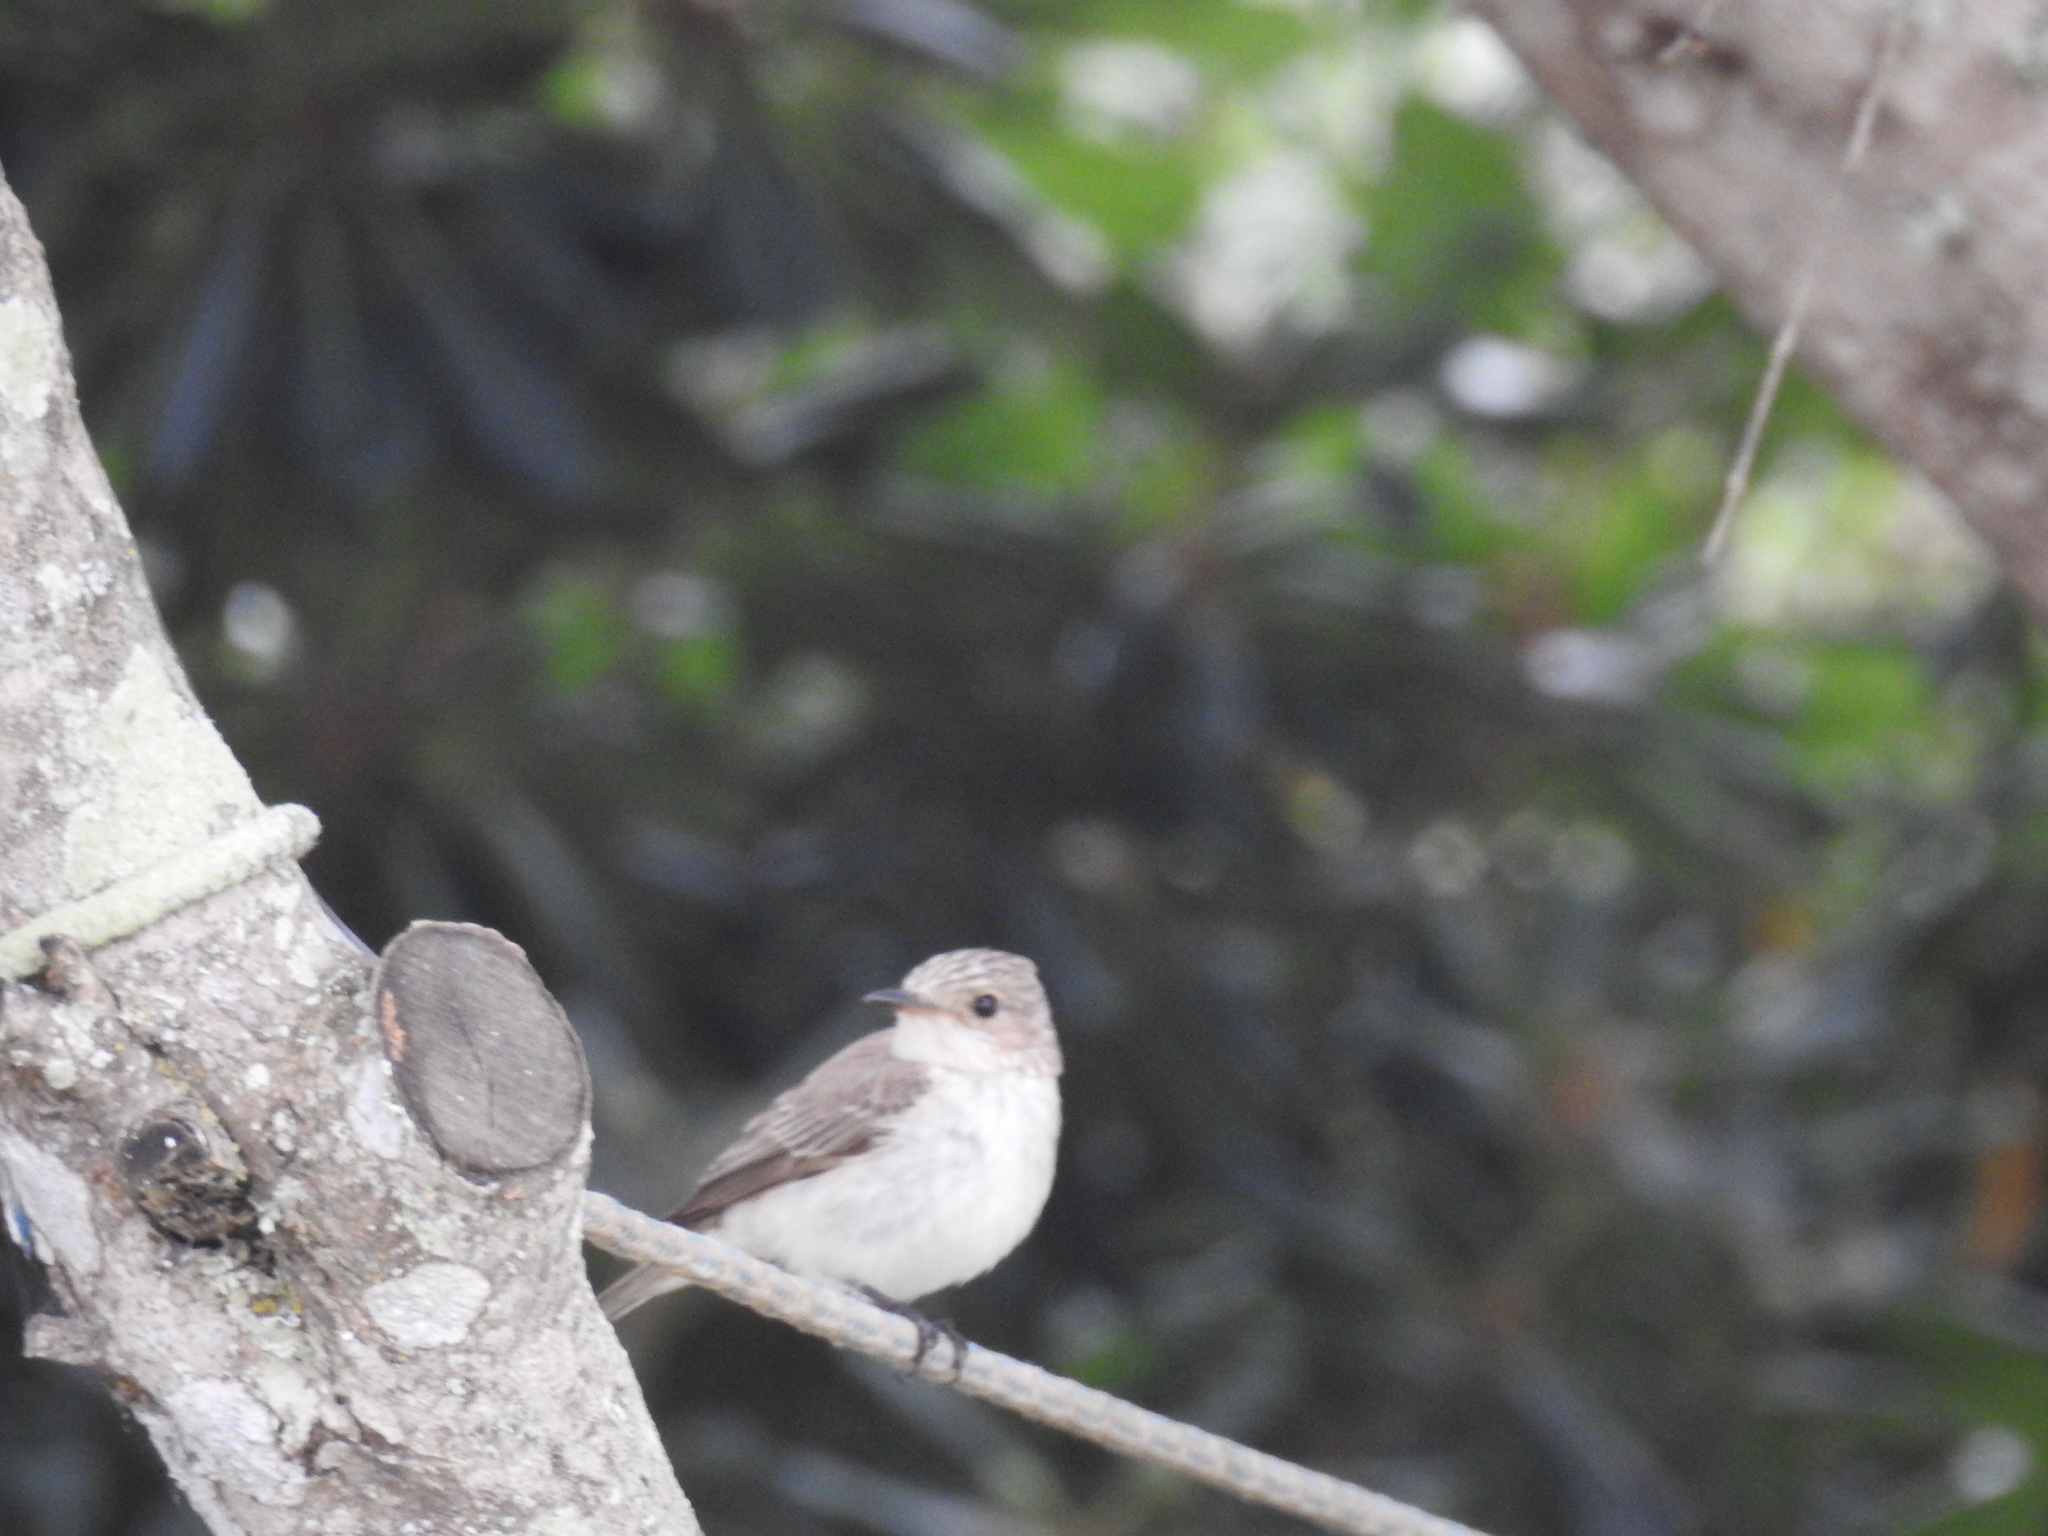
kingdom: Animalia
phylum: Chordata
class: Aves
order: Passeriformes
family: Muscicapidae
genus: Muscicapa
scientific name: Muscicapa striata
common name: Spotted flycatcher
